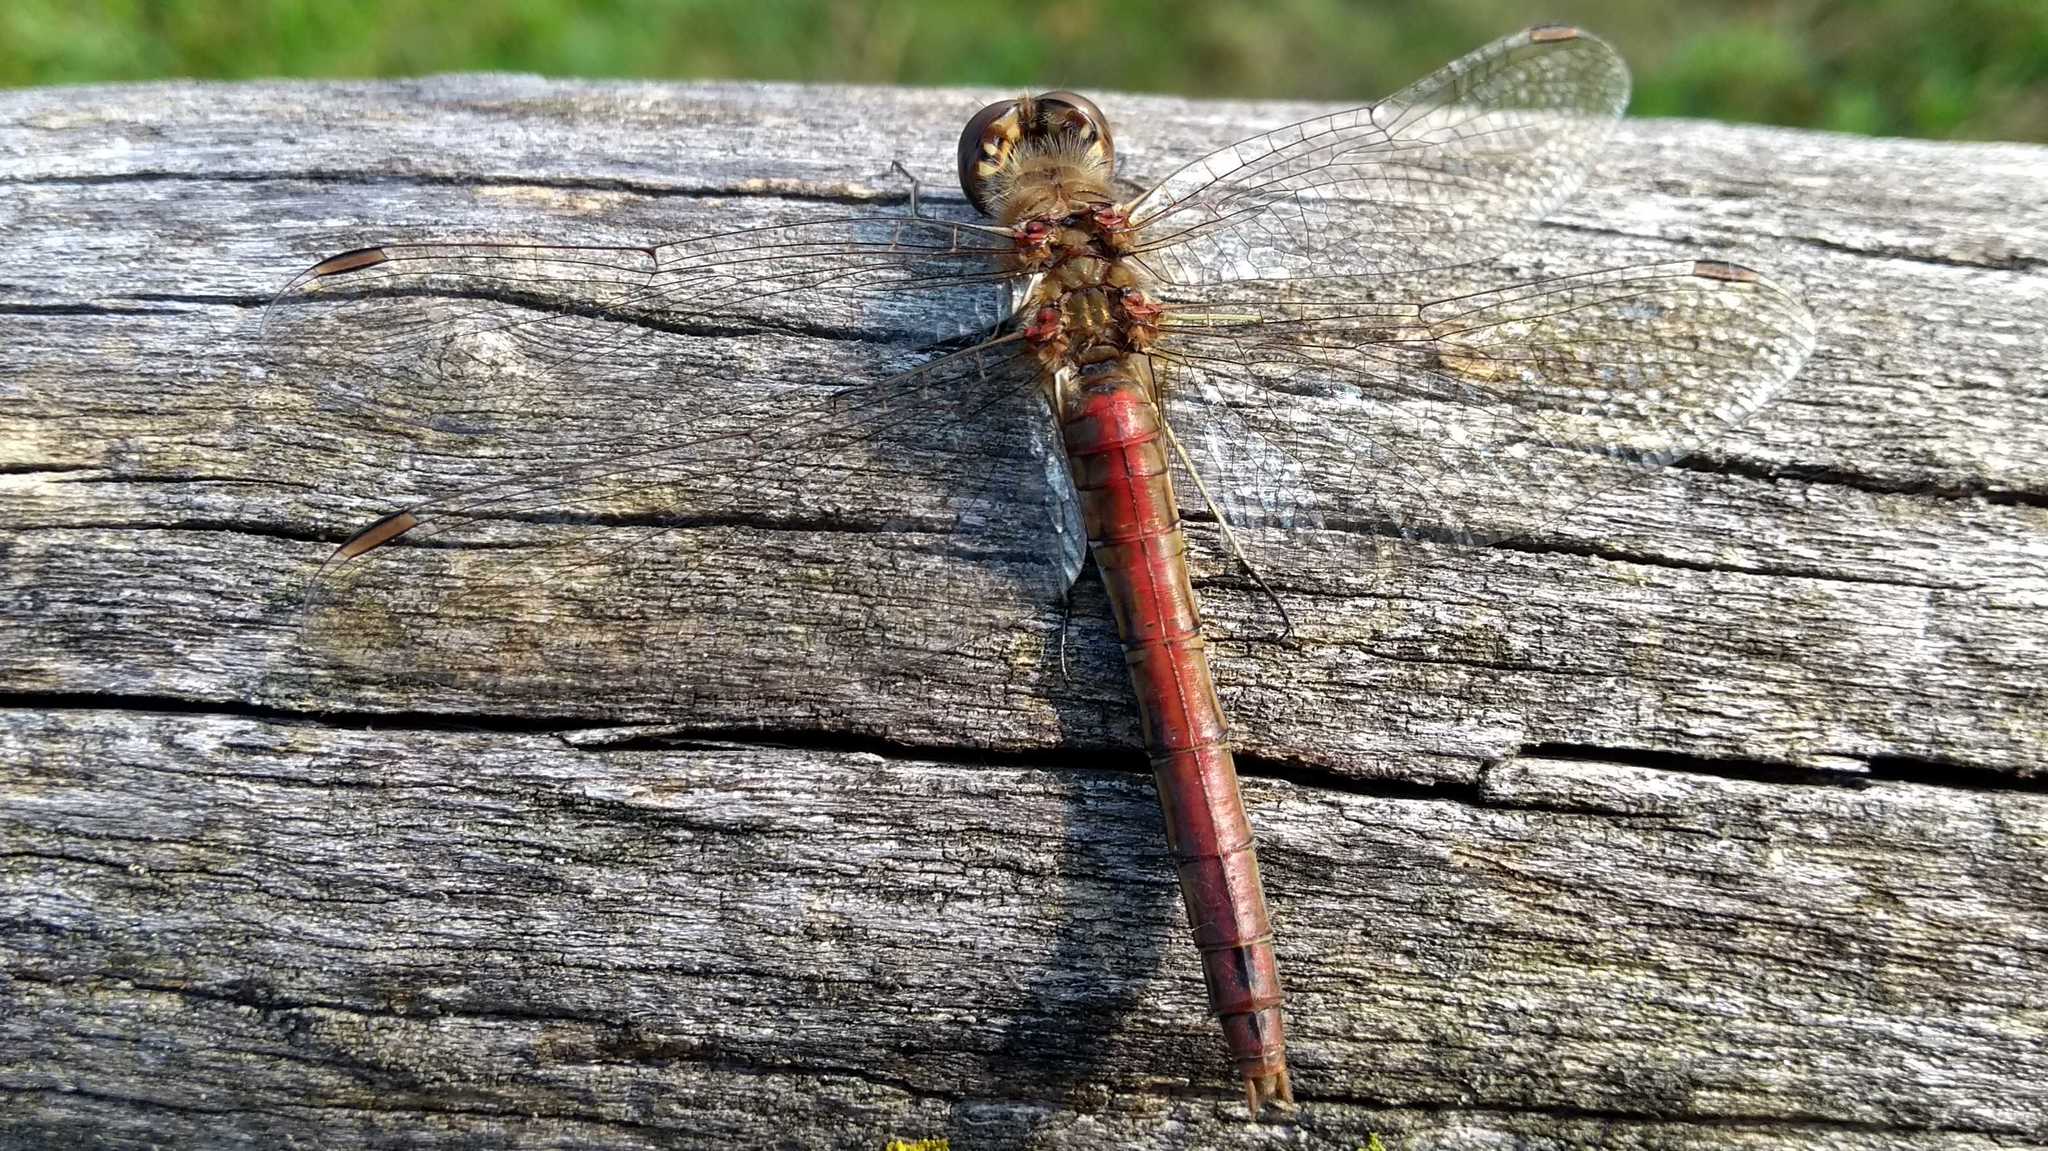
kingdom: Animalia
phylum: Arthropoda
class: Insecta
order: Odonata
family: Libellulidae
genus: Sympetrum
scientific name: Sympetrum striolatum
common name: Common darter
